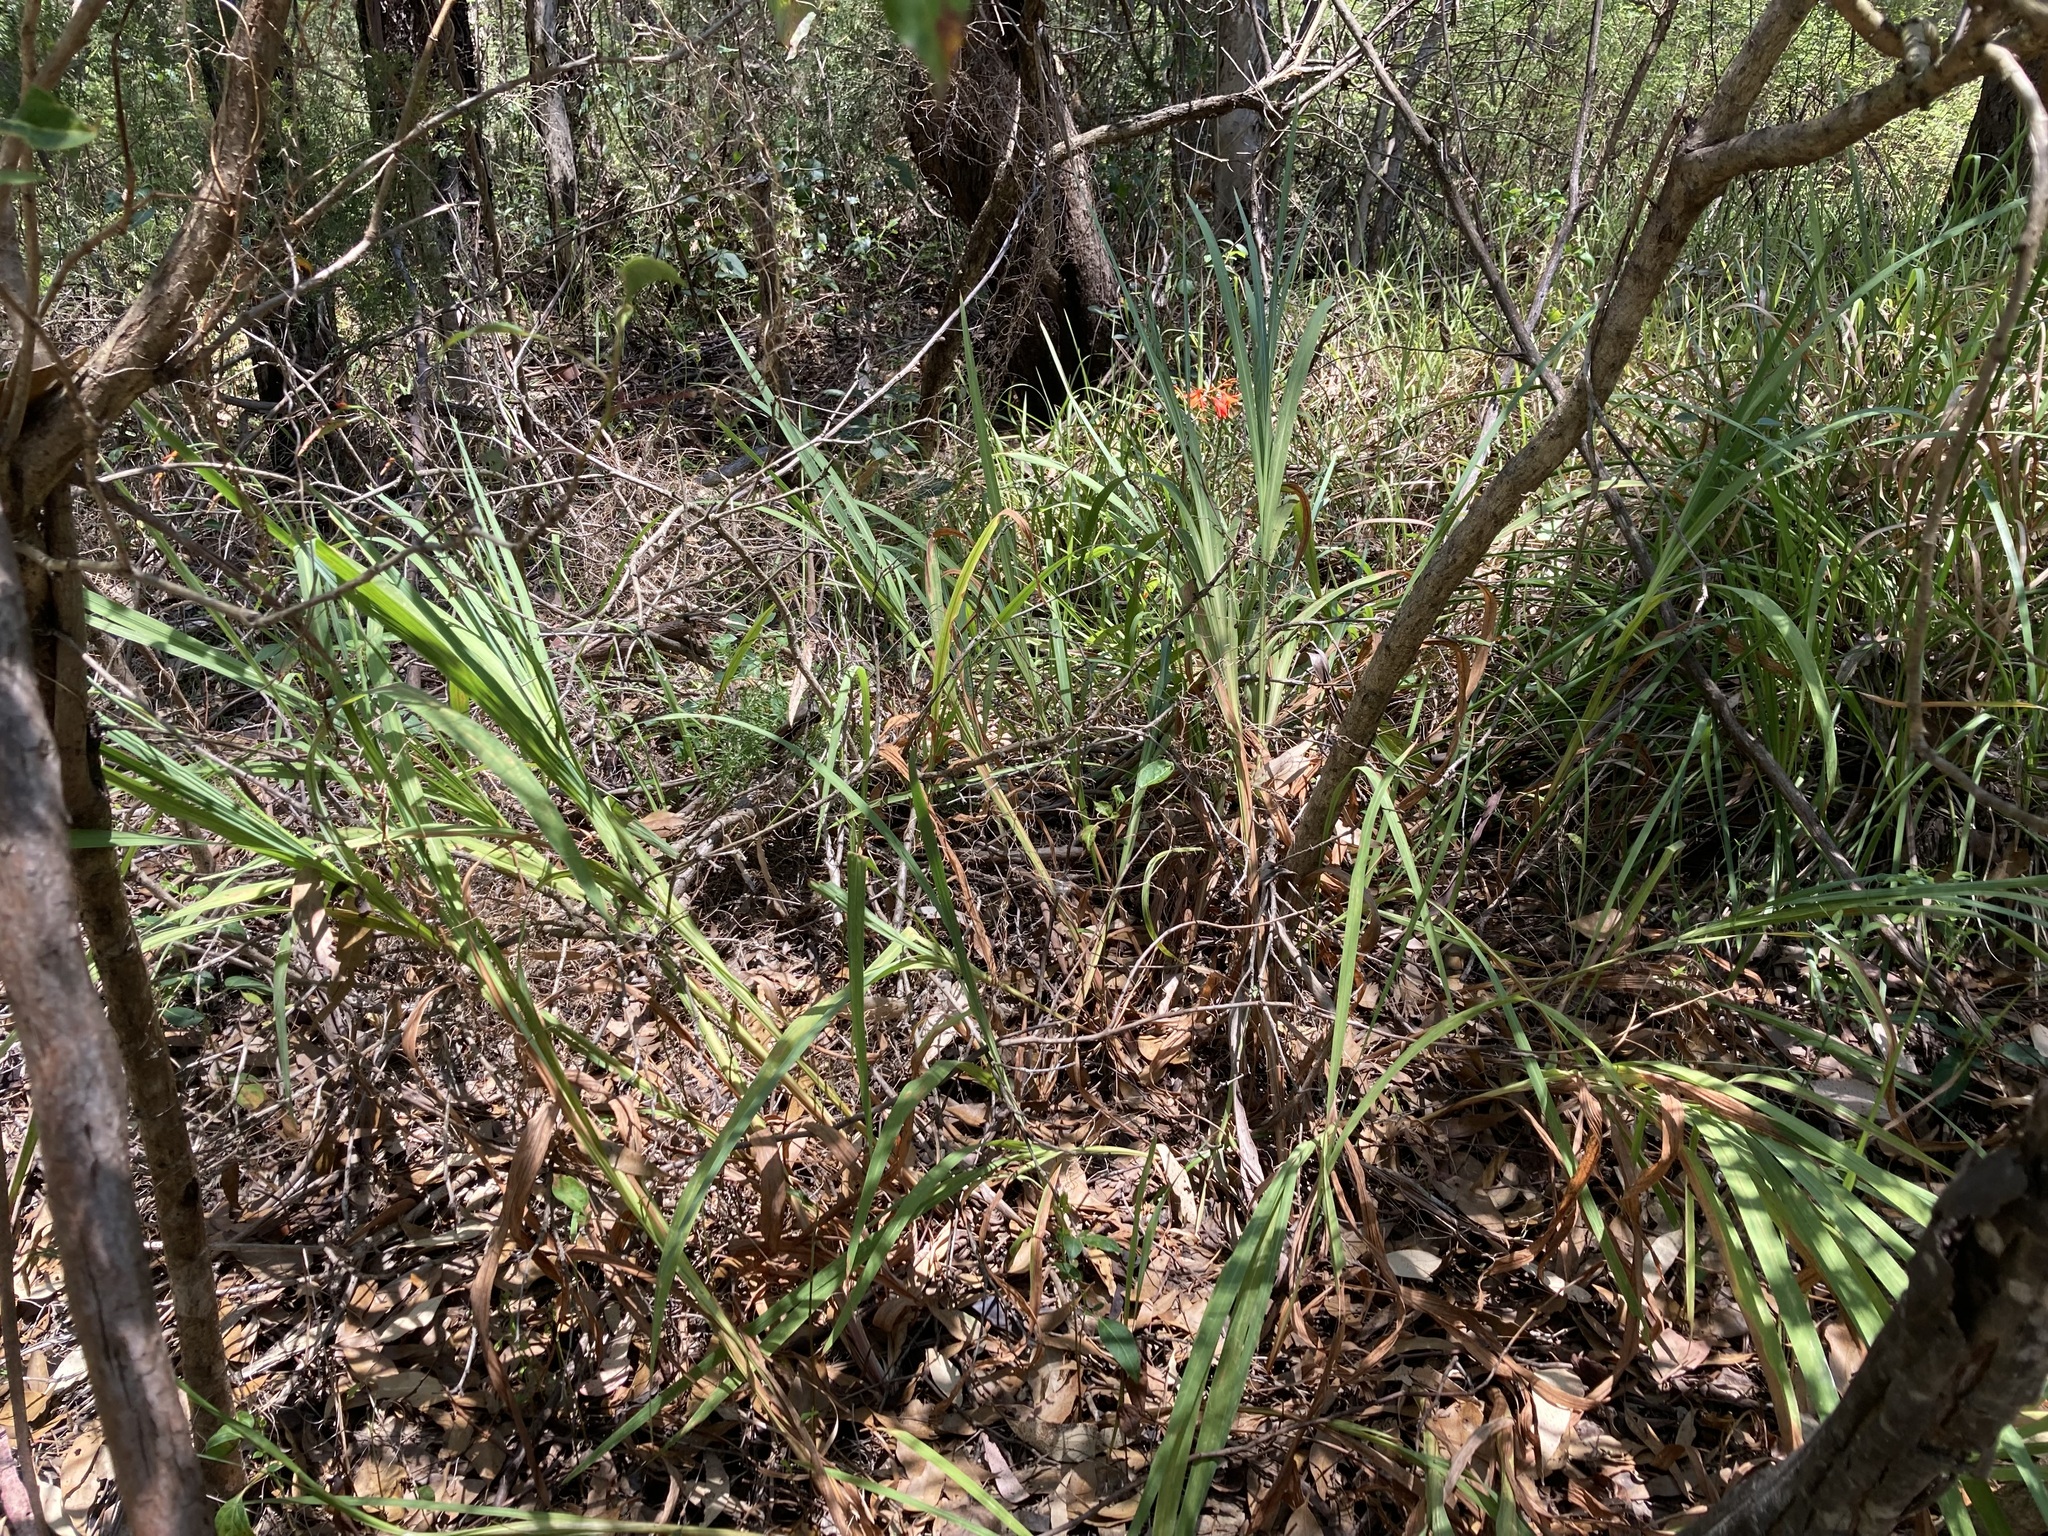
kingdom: Plantae
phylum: Tracheophyta
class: Liliopsida
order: Asparagales
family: Iridaceae
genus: Crocosmia
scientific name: Crocosmia crocosmiiflora
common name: Montbretia
